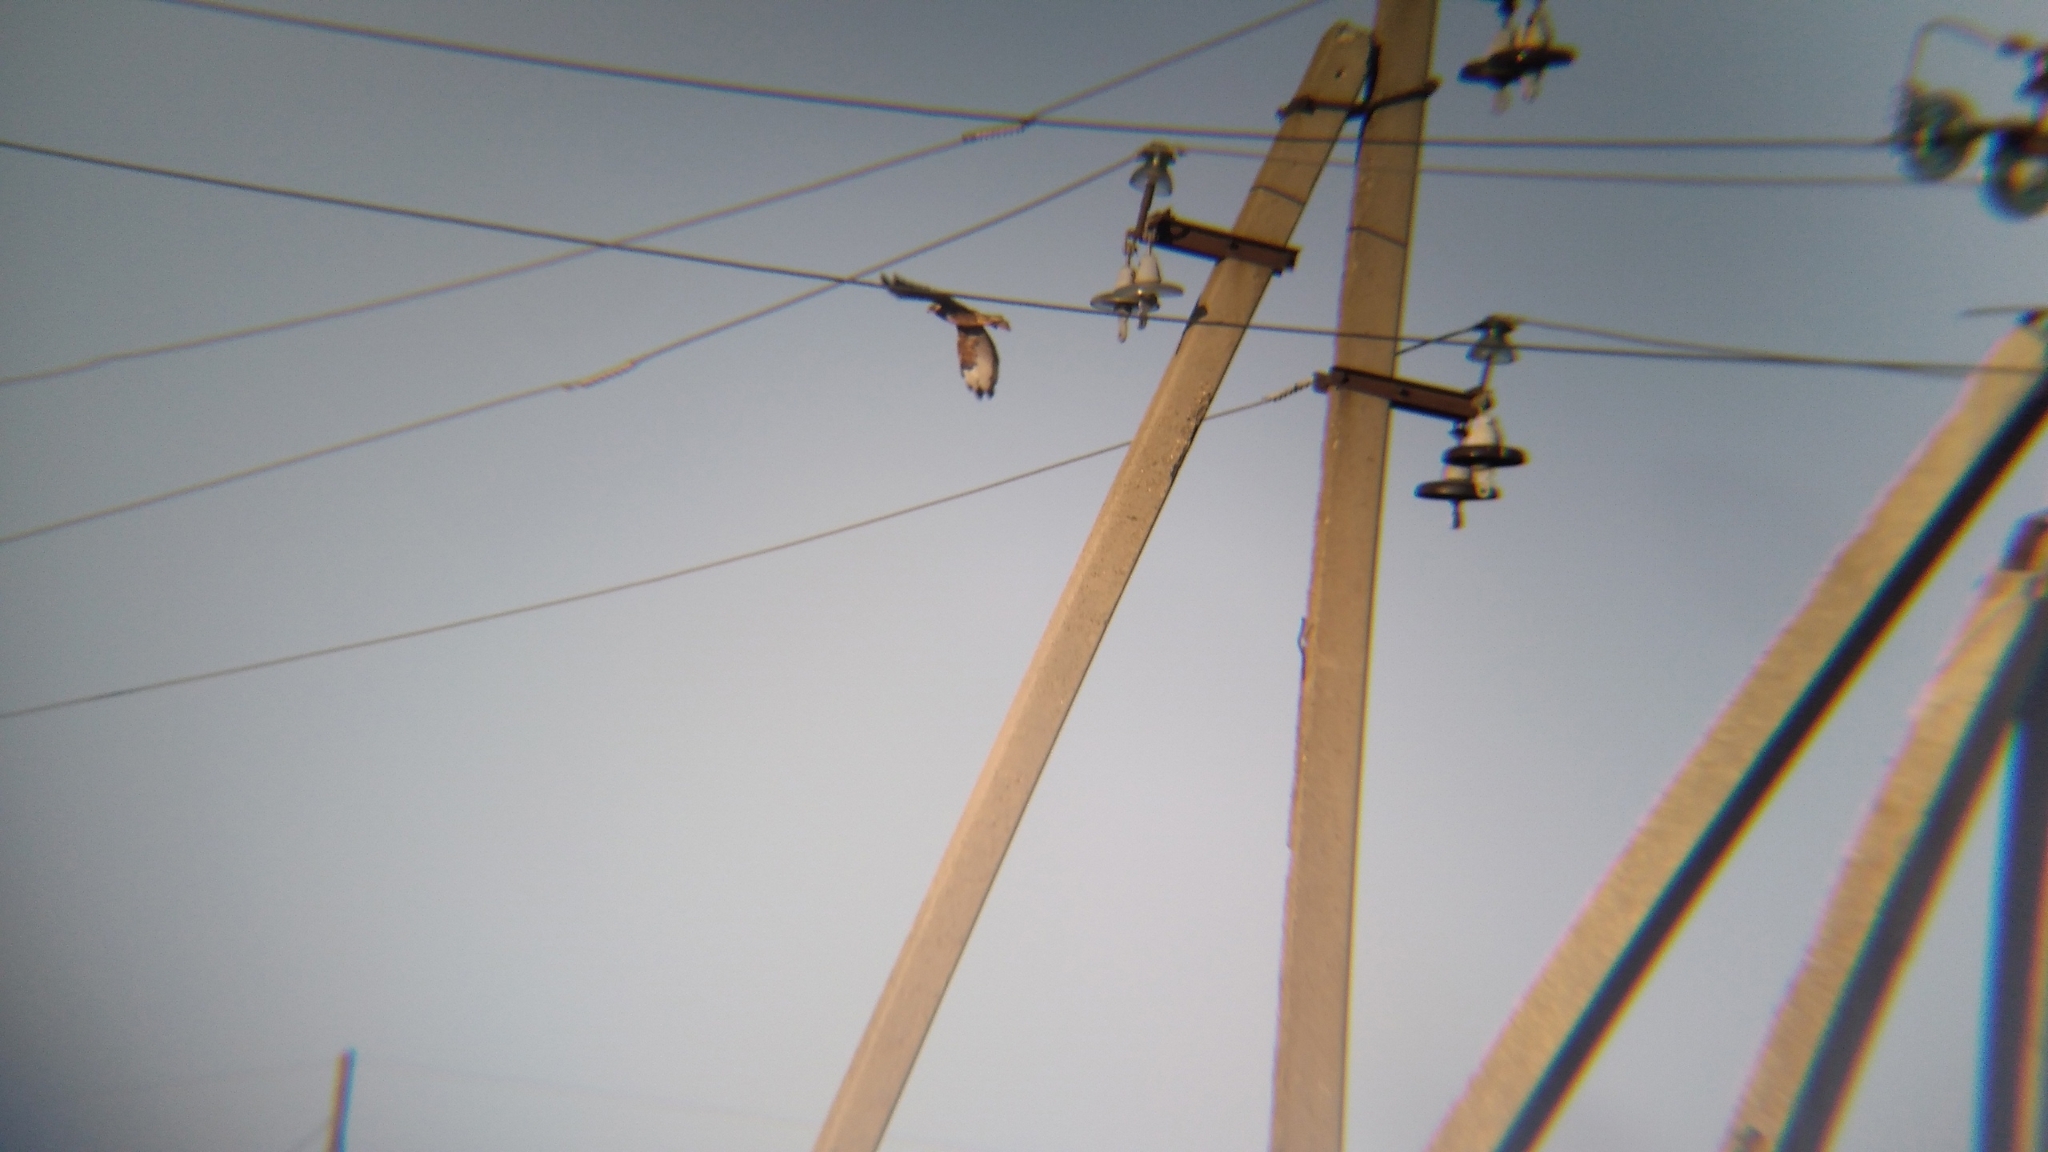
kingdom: Animalia
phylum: Chordata
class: Aves
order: Accipitriformes
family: Accipitridae
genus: Buteo
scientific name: Buteo buteo
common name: Common buzzard
